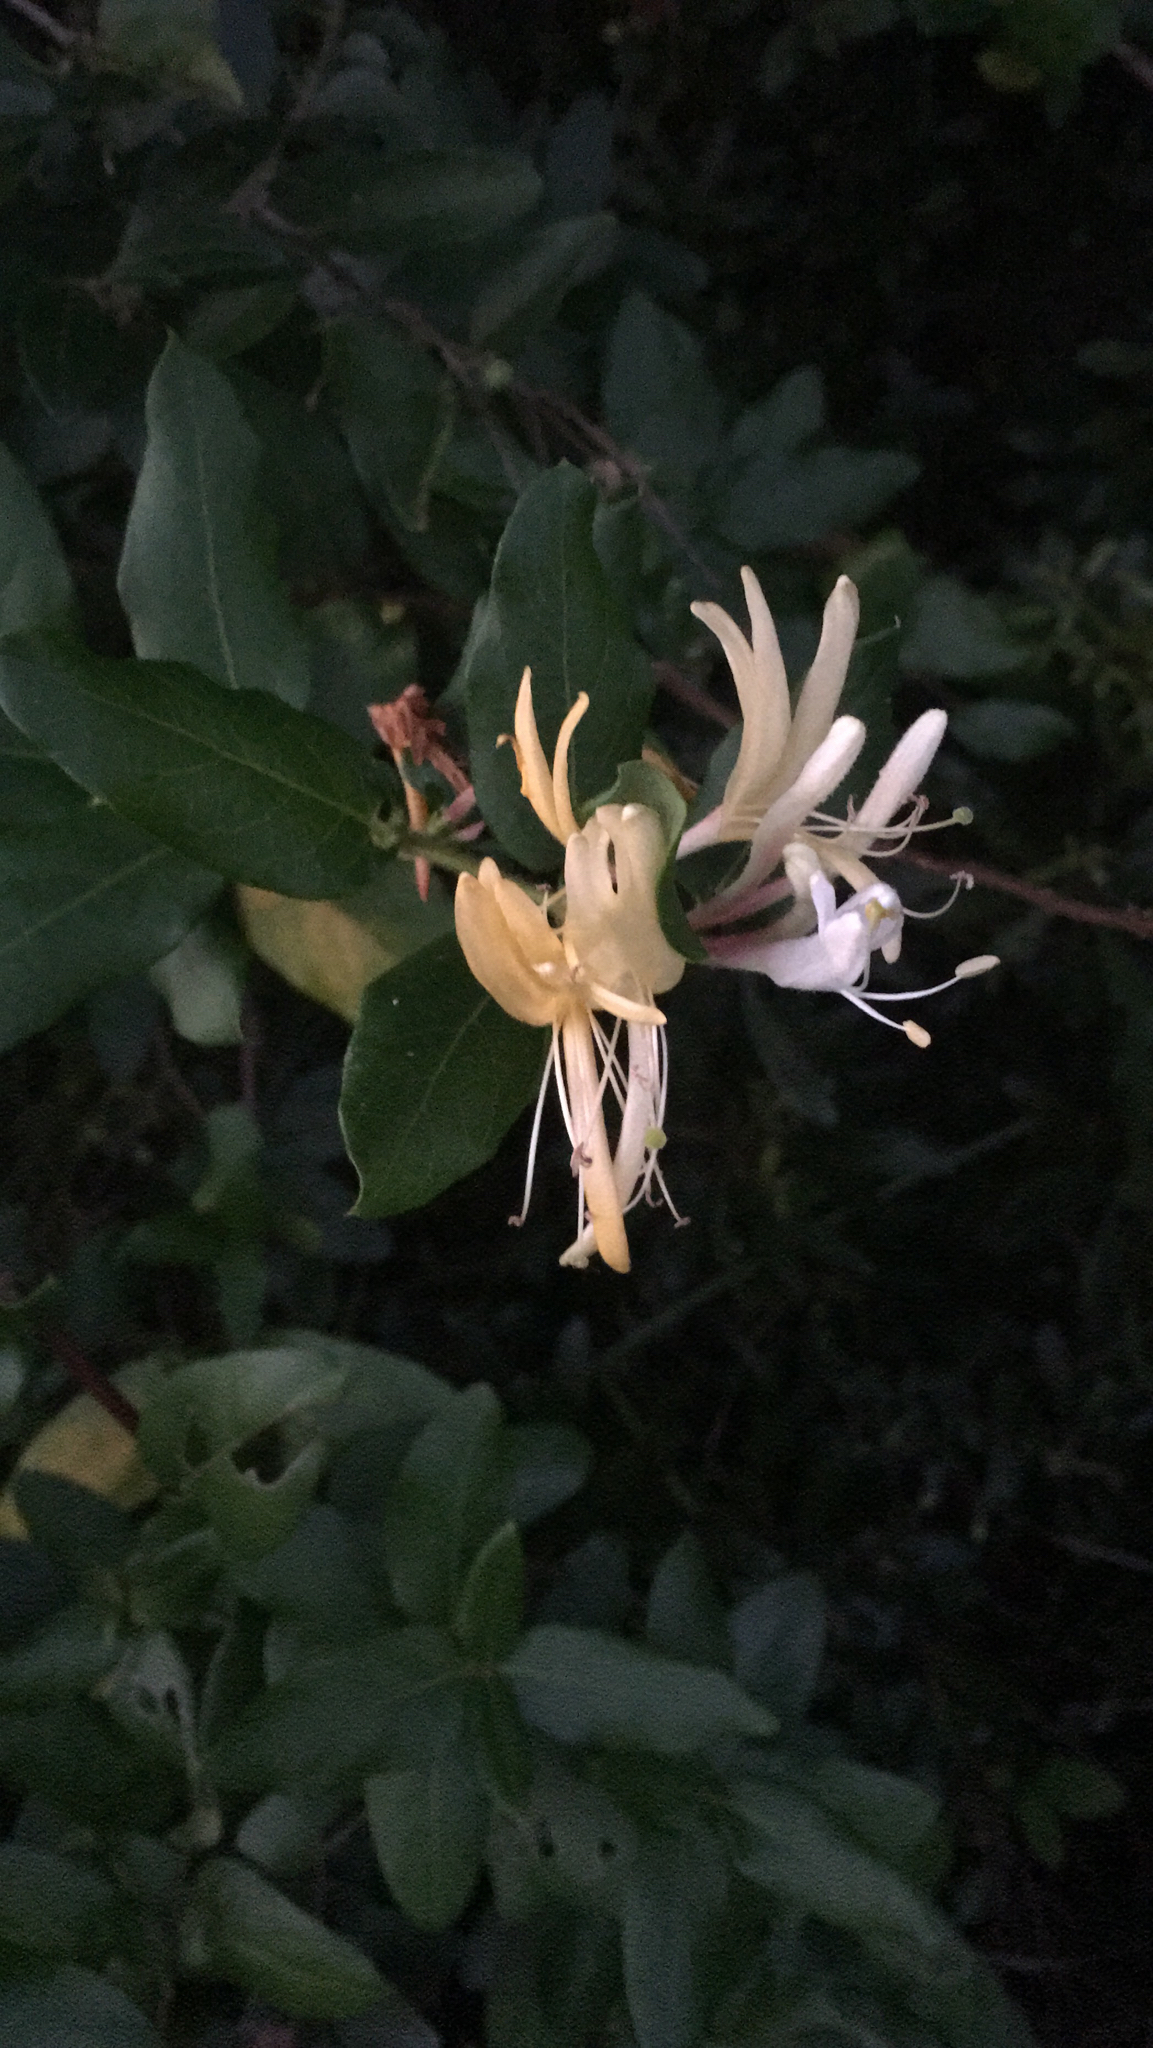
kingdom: Plantae
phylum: Tracheophyta
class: Magnoliopsida
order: Dipsacales
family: Caprifoliaceae
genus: Lonicera
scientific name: Lonicera japonica
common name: Japanese honeysuckle
